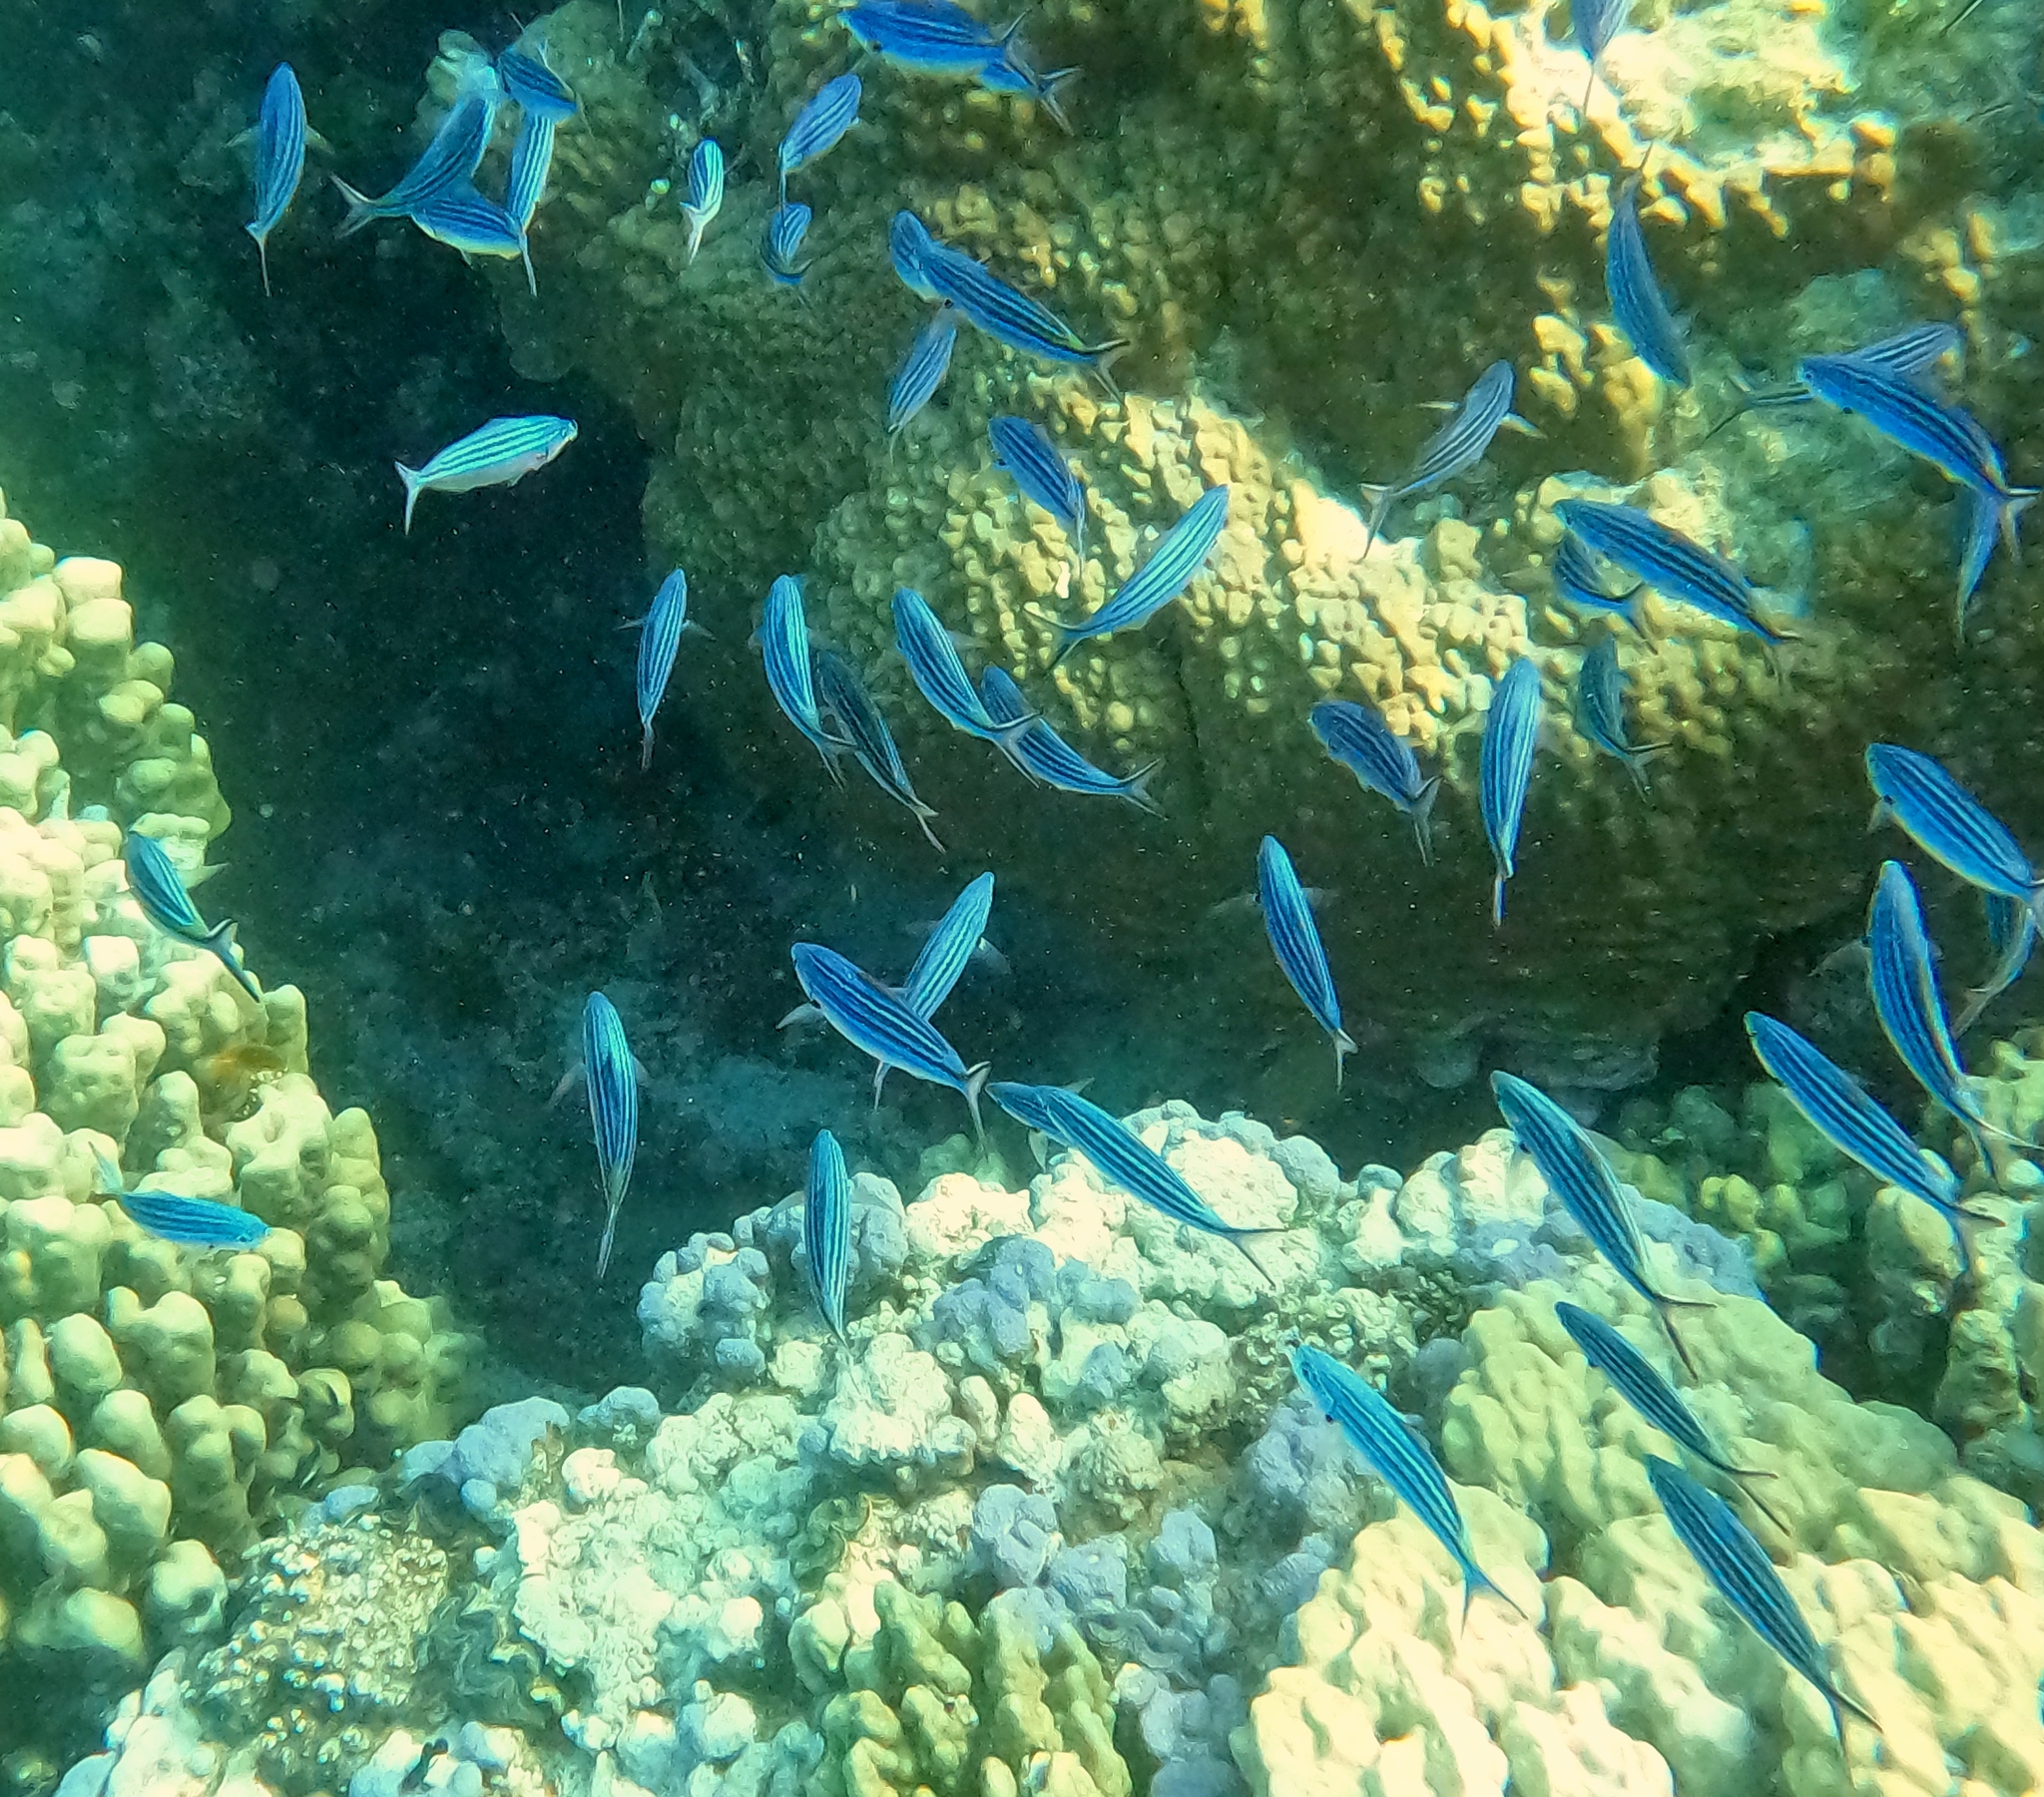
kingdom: Animalia
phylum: Chordata
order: Perciformes
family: Caesionidae
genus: Caesio
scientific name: Caesio striata
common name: Striated fusilier
